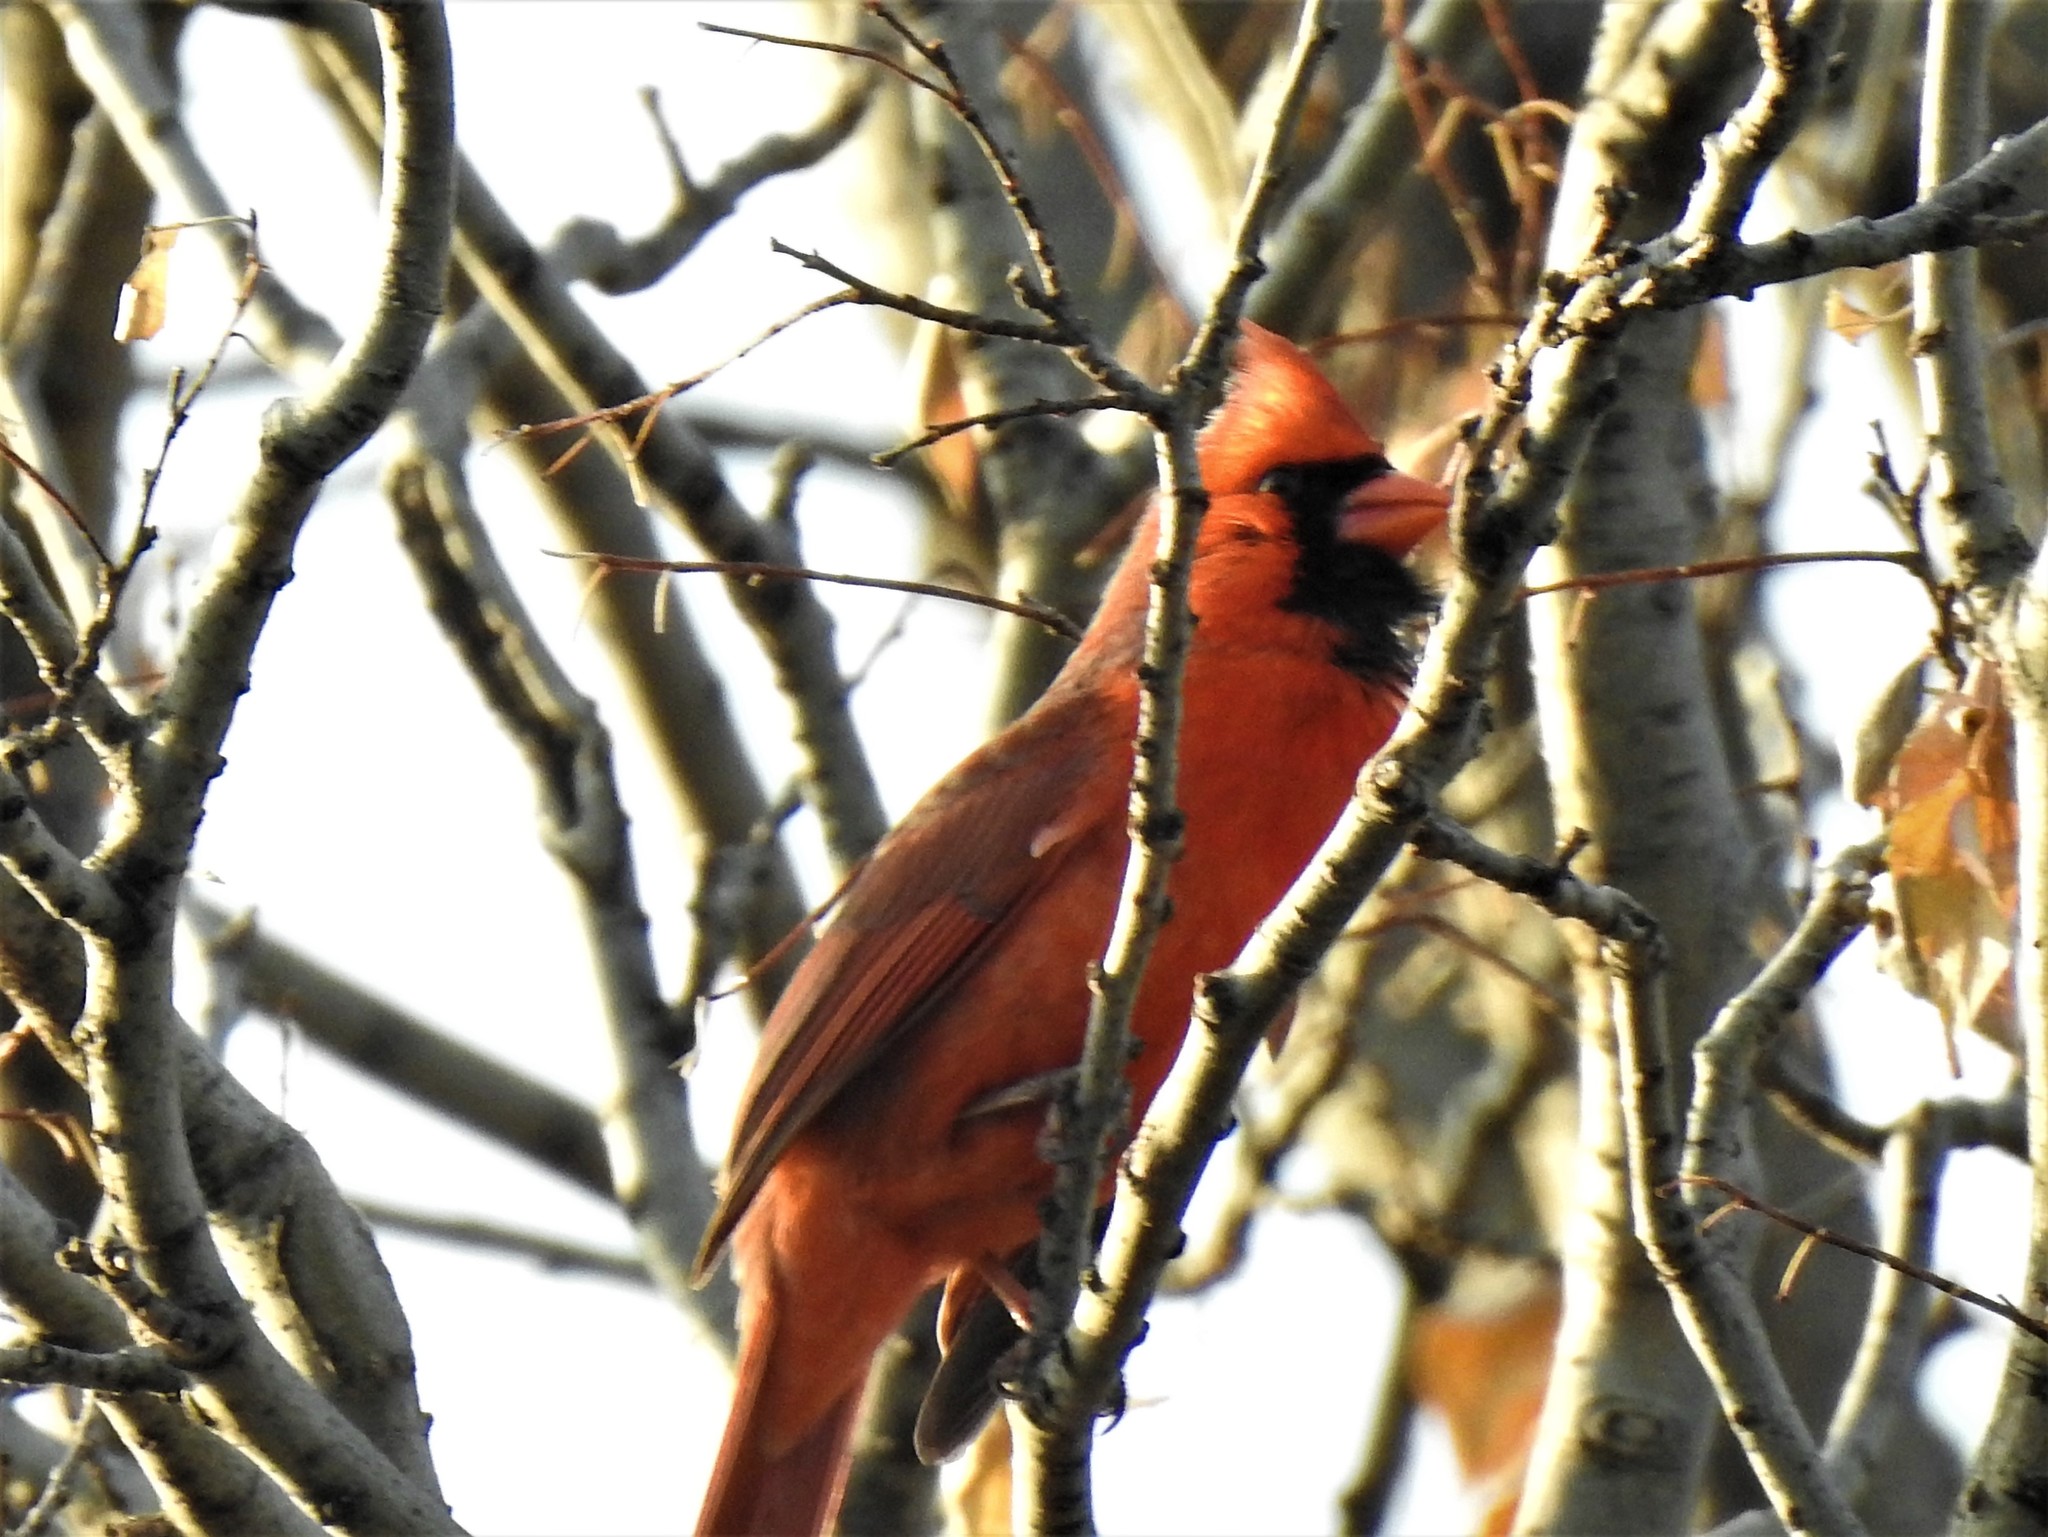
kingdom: Animalia
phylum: Chordata
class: Aves
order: Passeriformes
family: Cardinalidae
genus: Cardinalis
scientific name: Cardinalis cardinalis
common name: Northern cardinal
